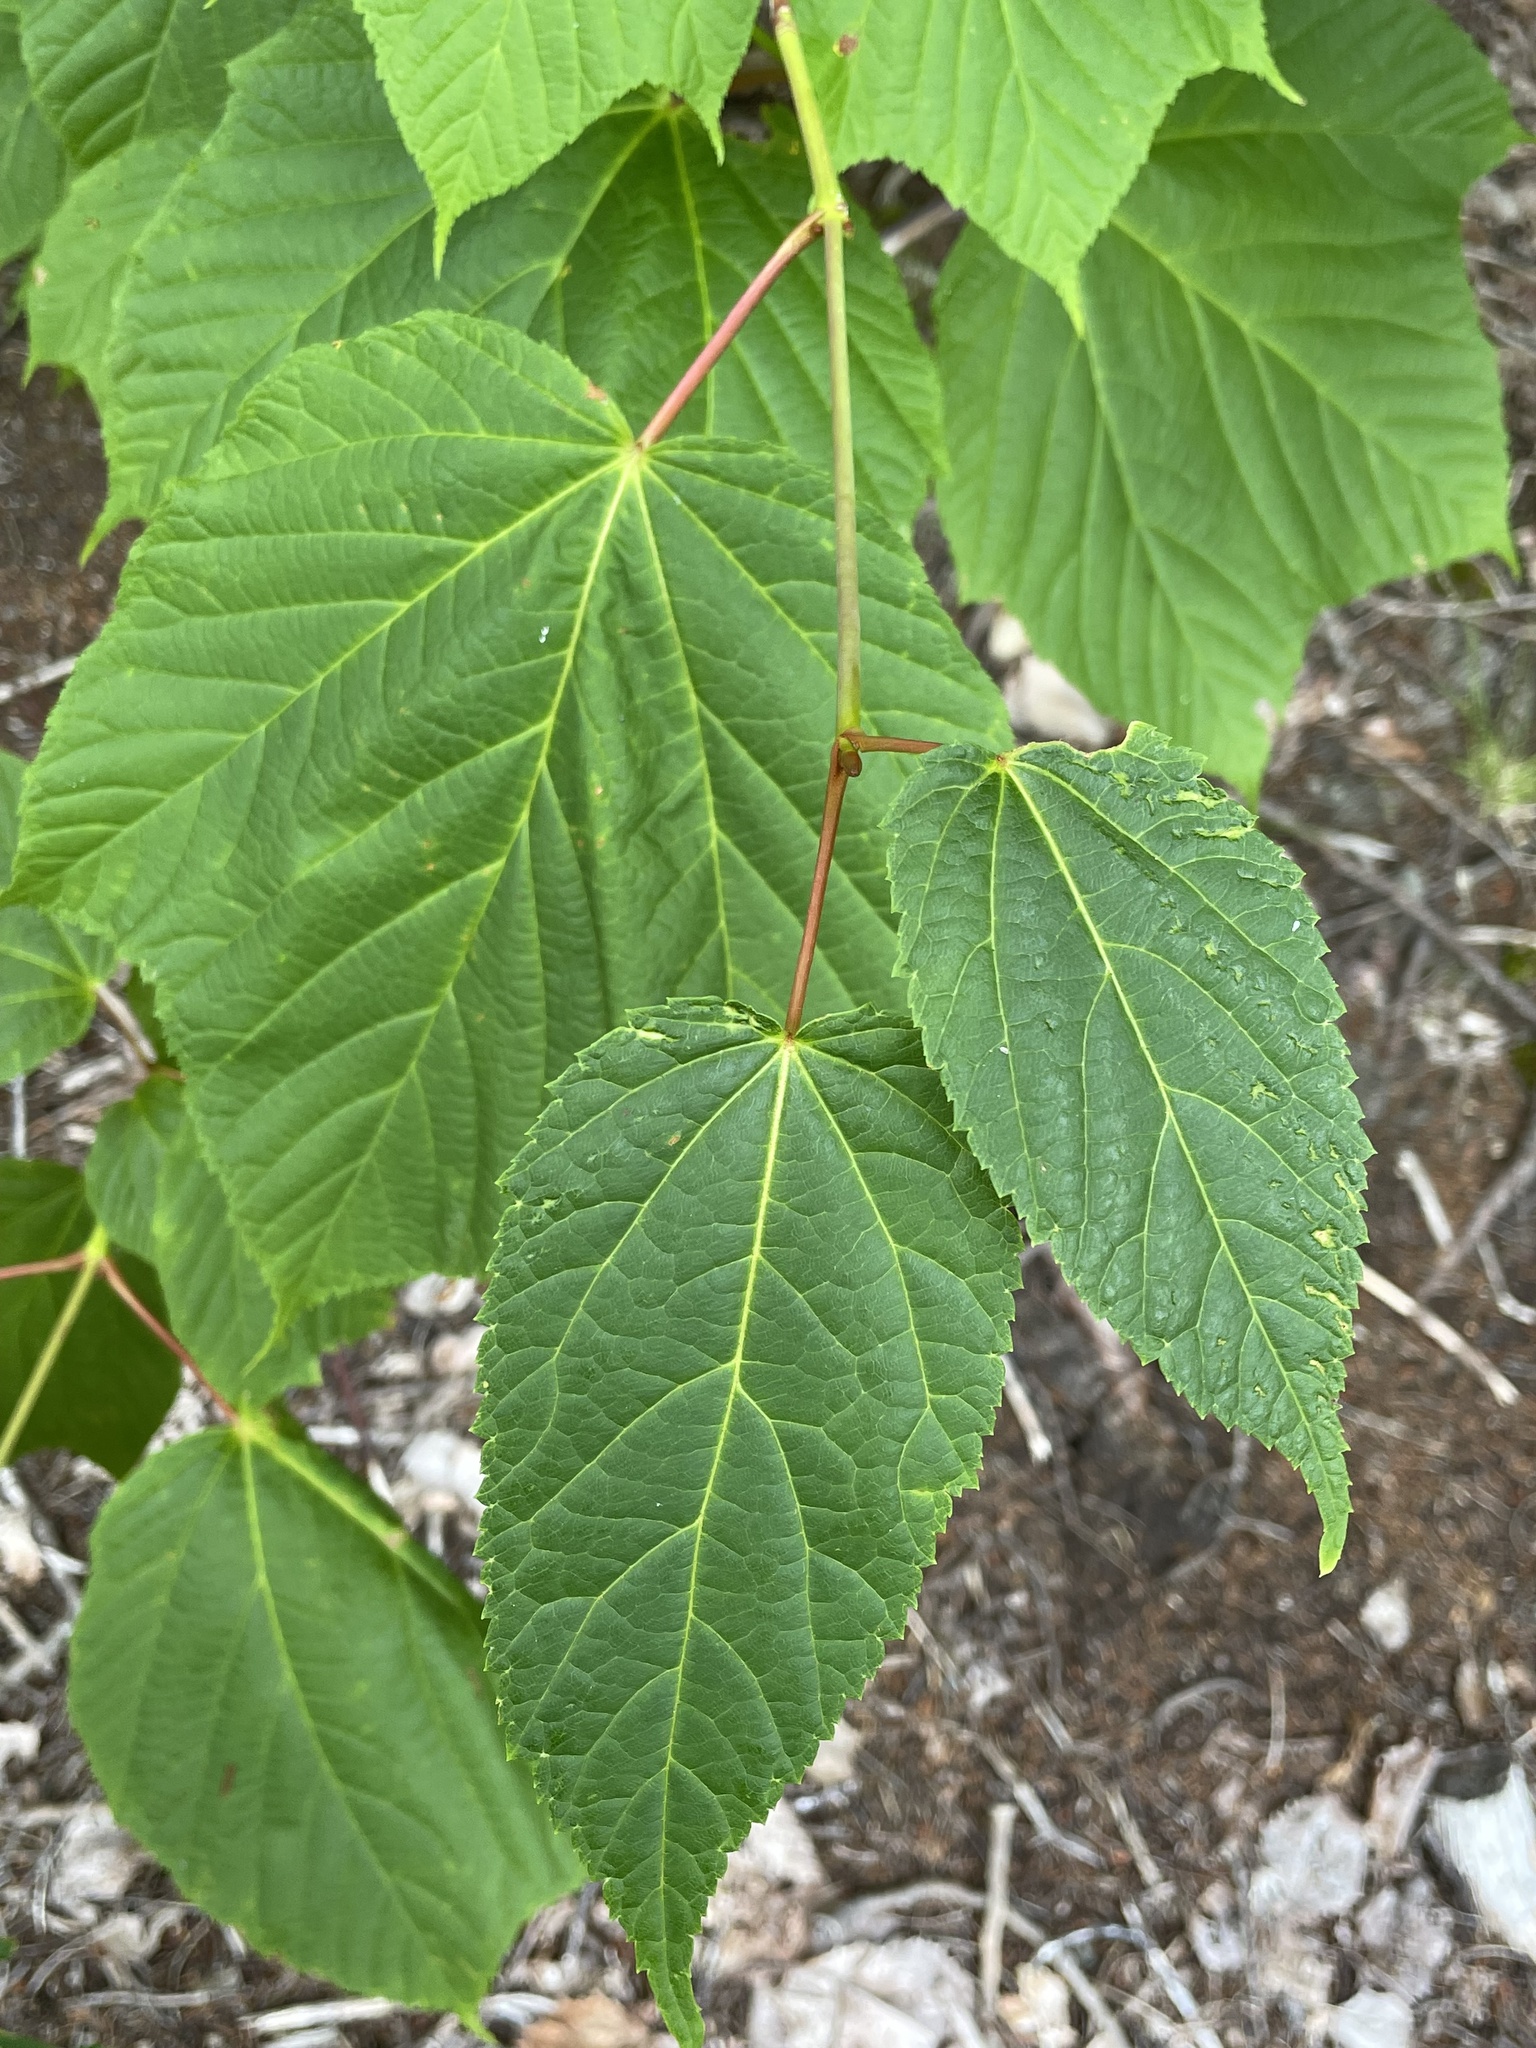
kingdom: Plantae
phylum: Tracheophyta
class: Magnoliopsida
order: Sapindales
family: Sapindaceae
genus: Acer
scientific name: Acer pensylvanicum
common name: Moosewood
